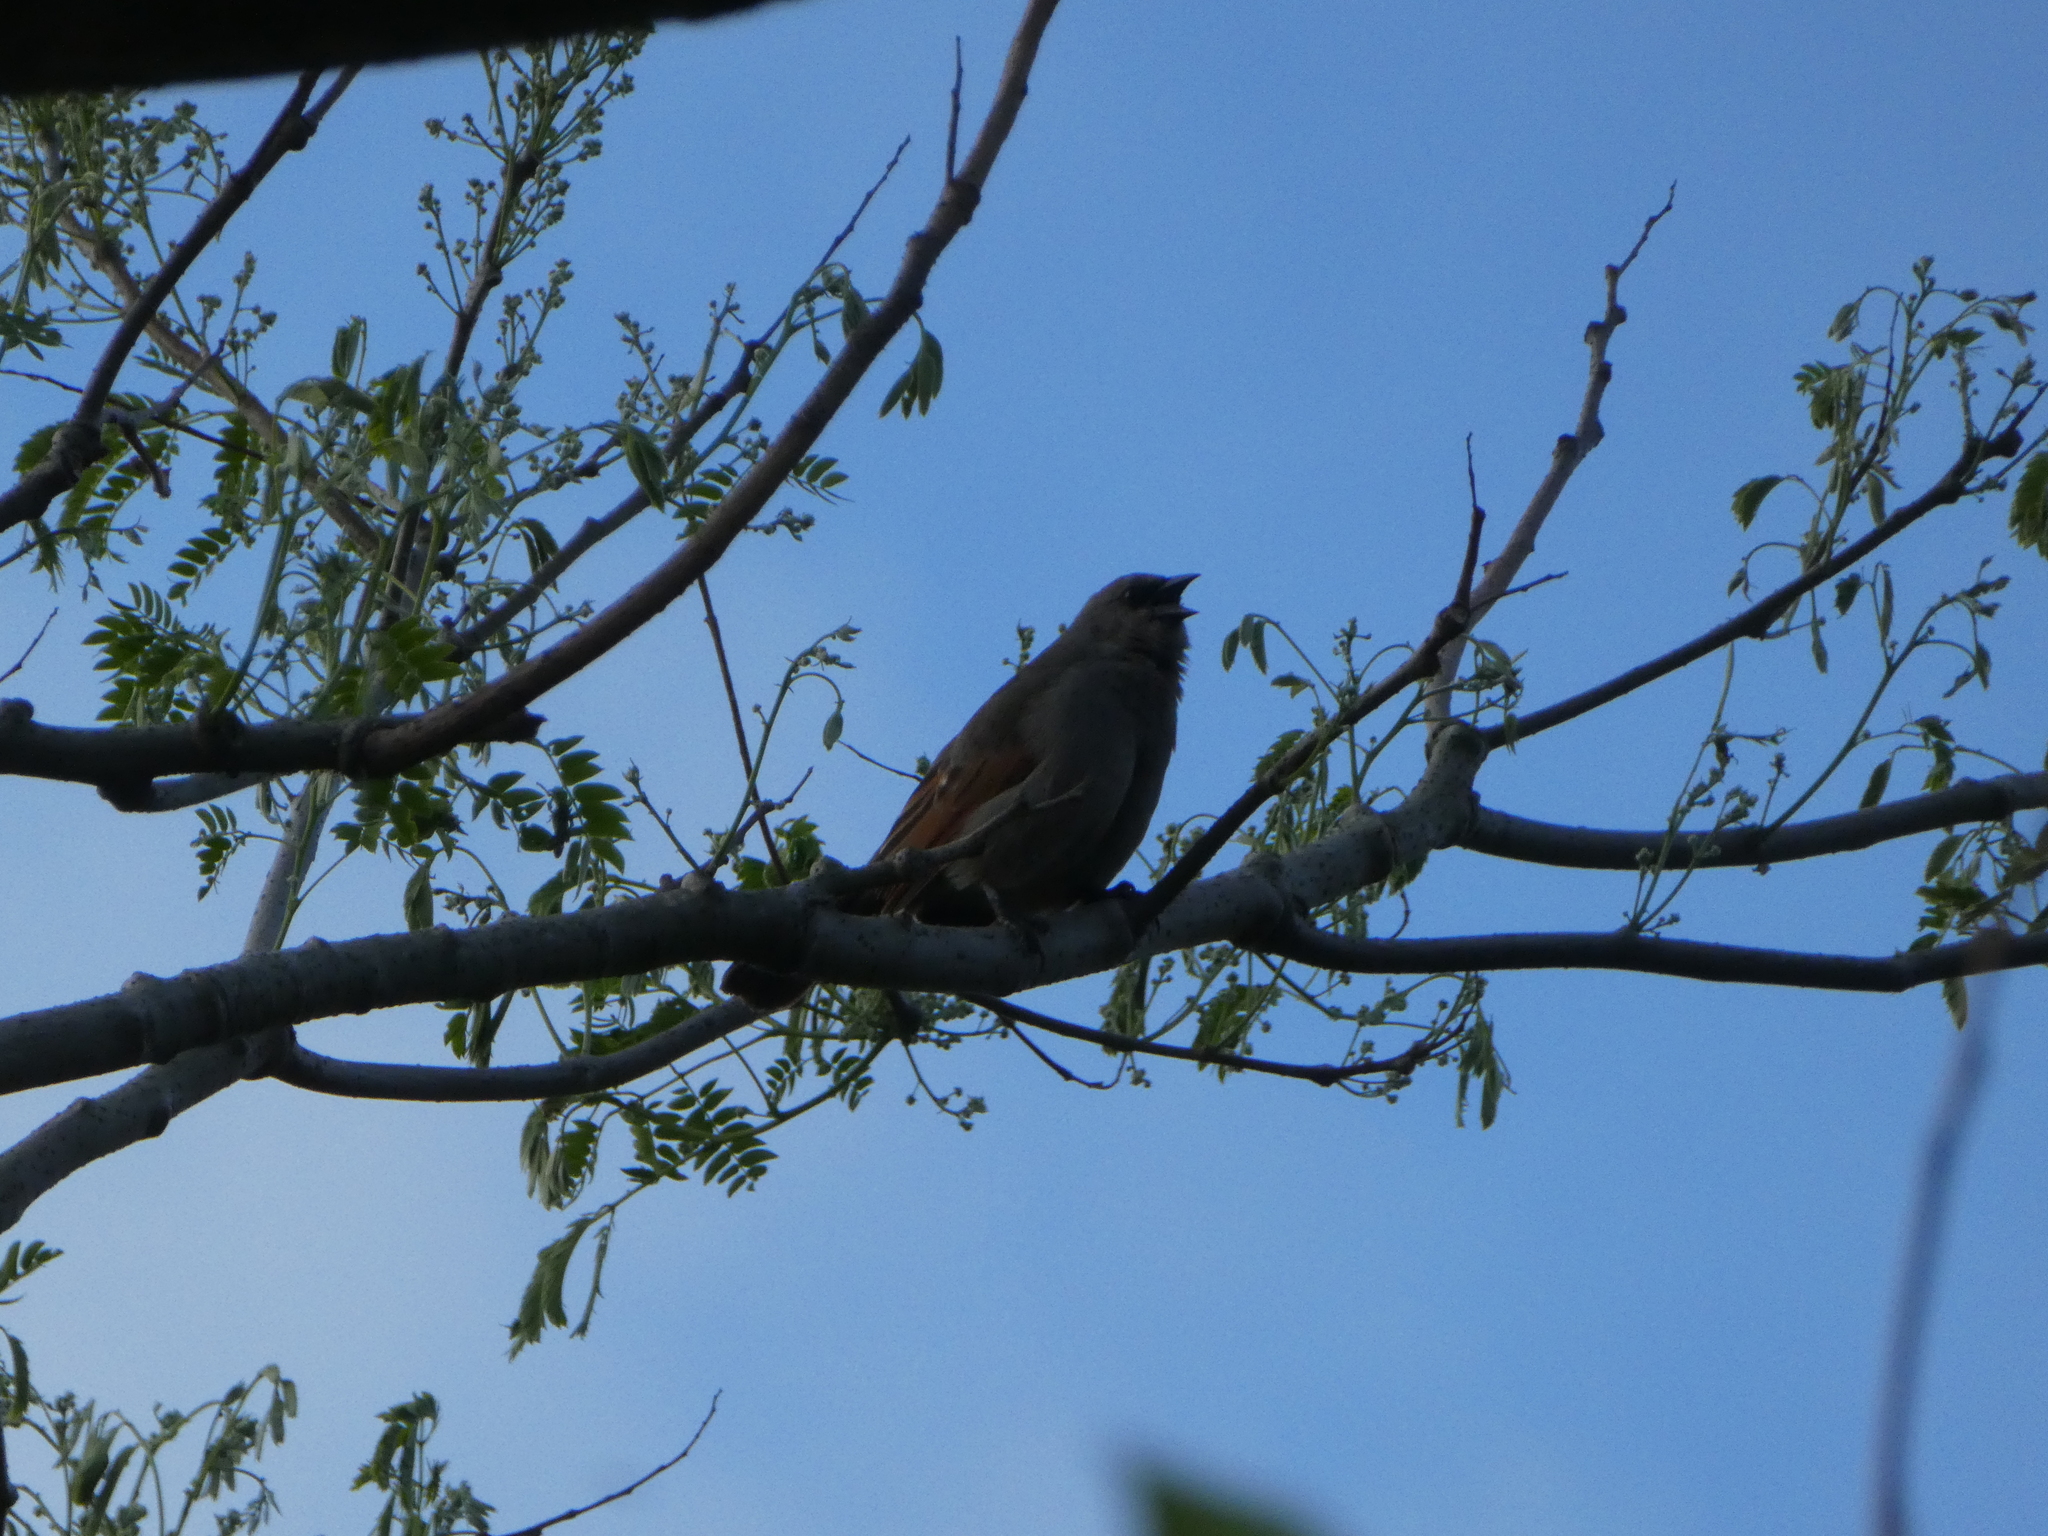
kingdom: Animalia
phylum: Chordata
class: Aves
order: Passeriformes
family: Icteridae
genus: Agelaioides
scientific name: Agelaioides badius
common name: Baywing
